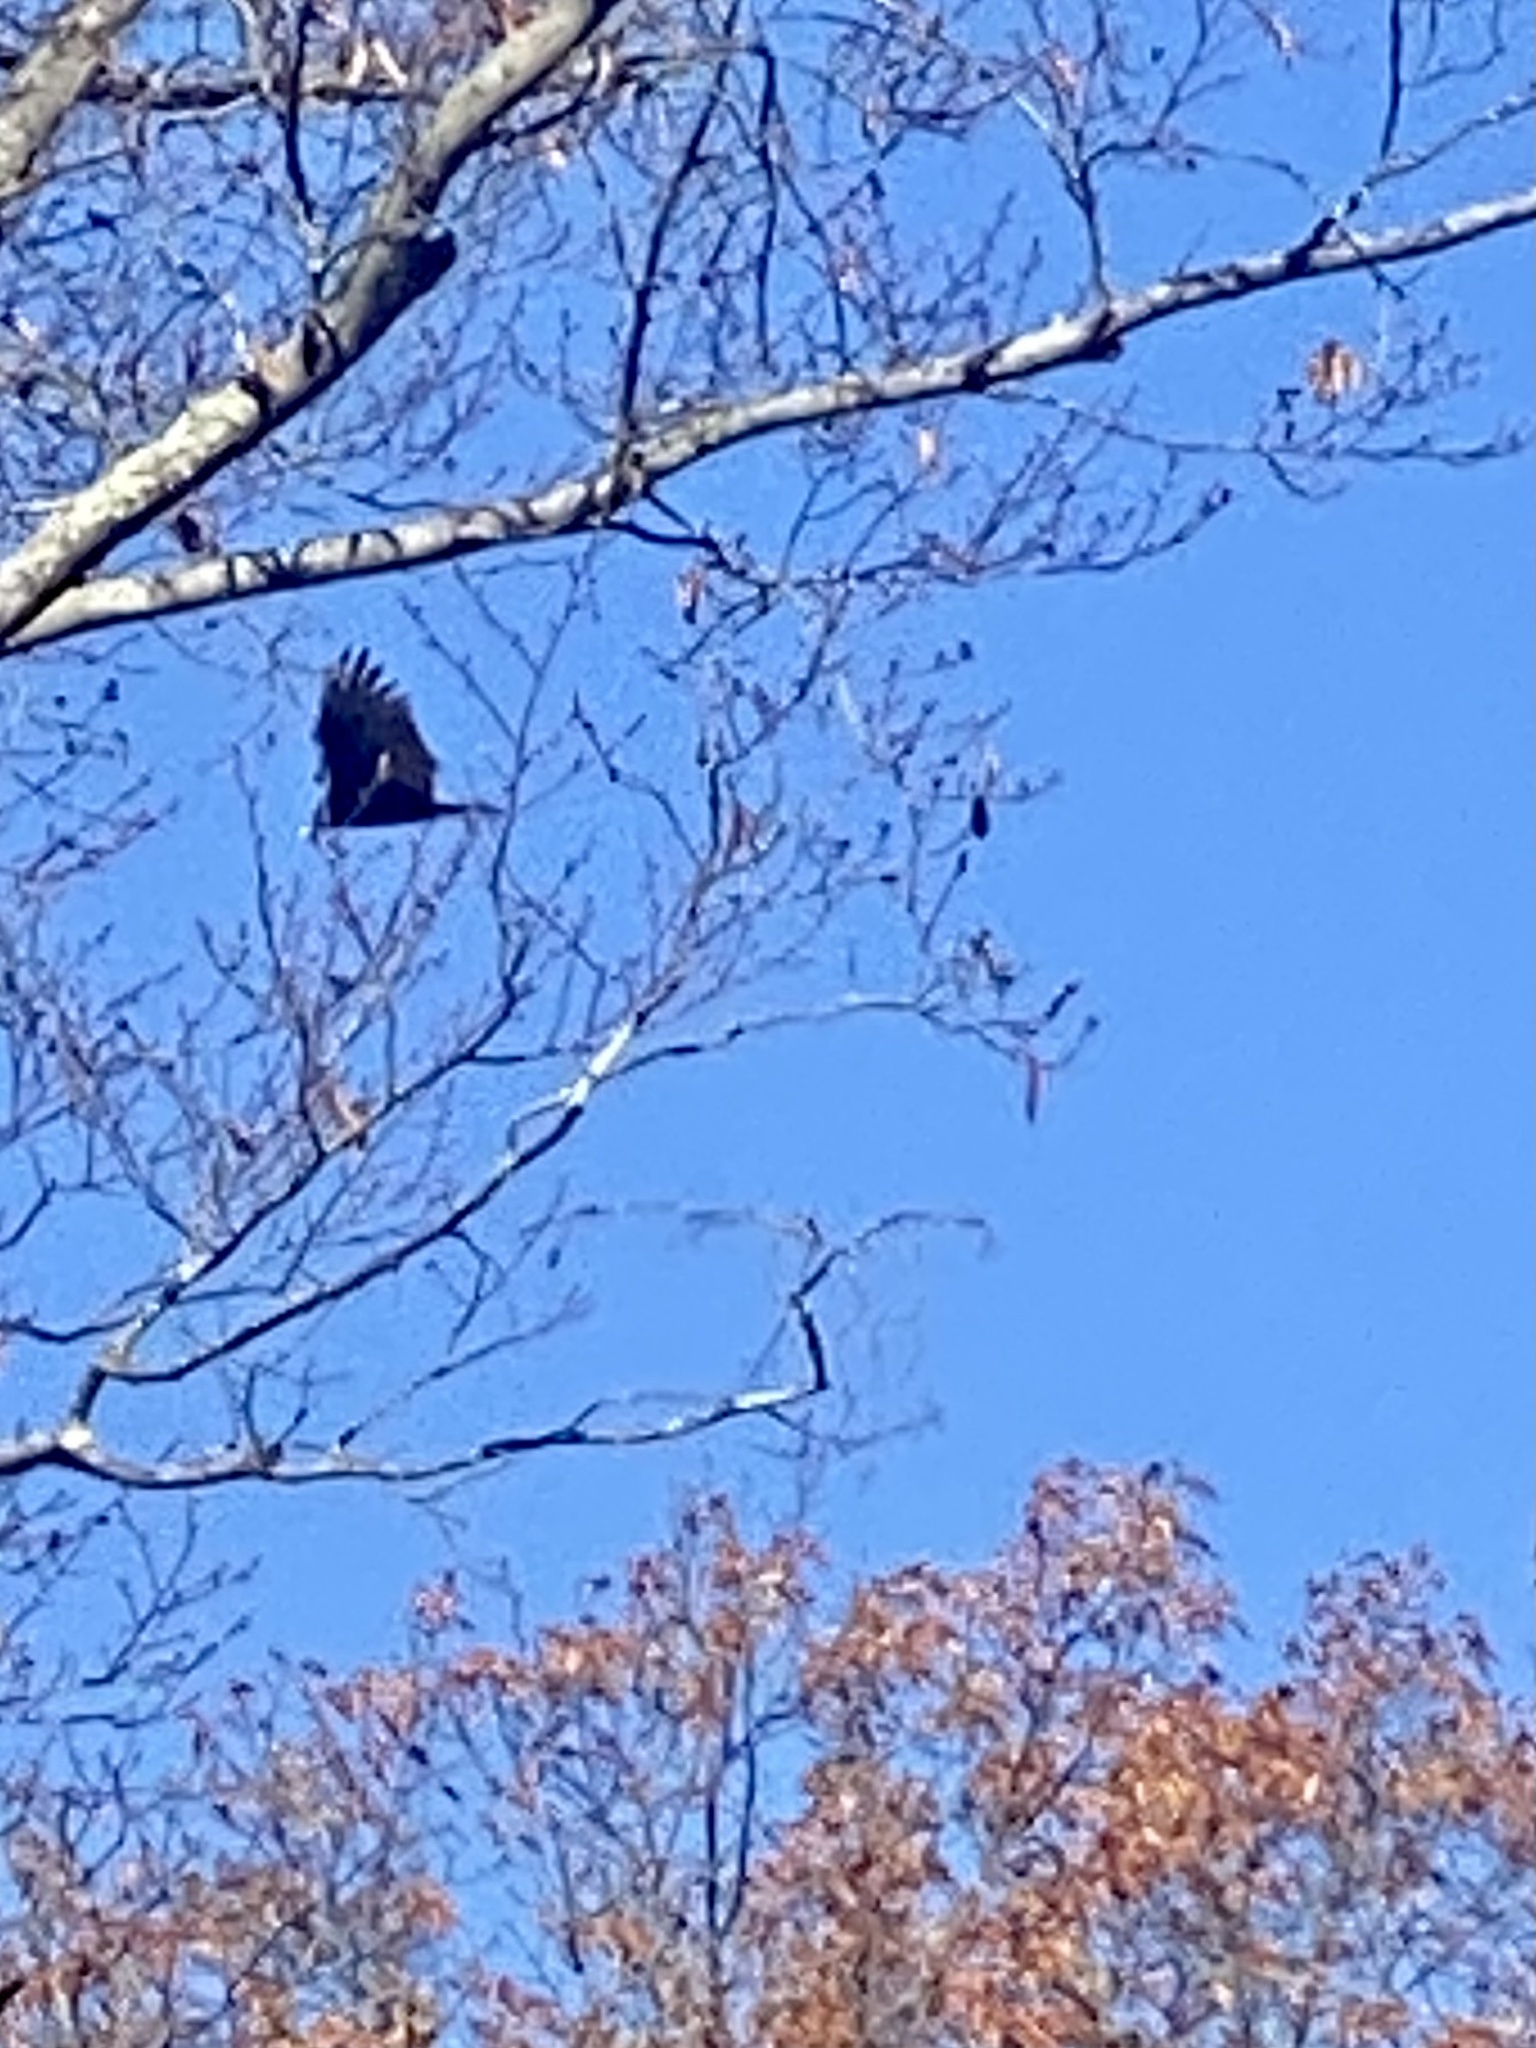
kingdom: Animalia
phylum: Chordata
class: Aves
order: Accipitriformes
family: Cathartidae
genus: Cathartes
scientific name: Cathartes aura
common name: Turkey vulture
